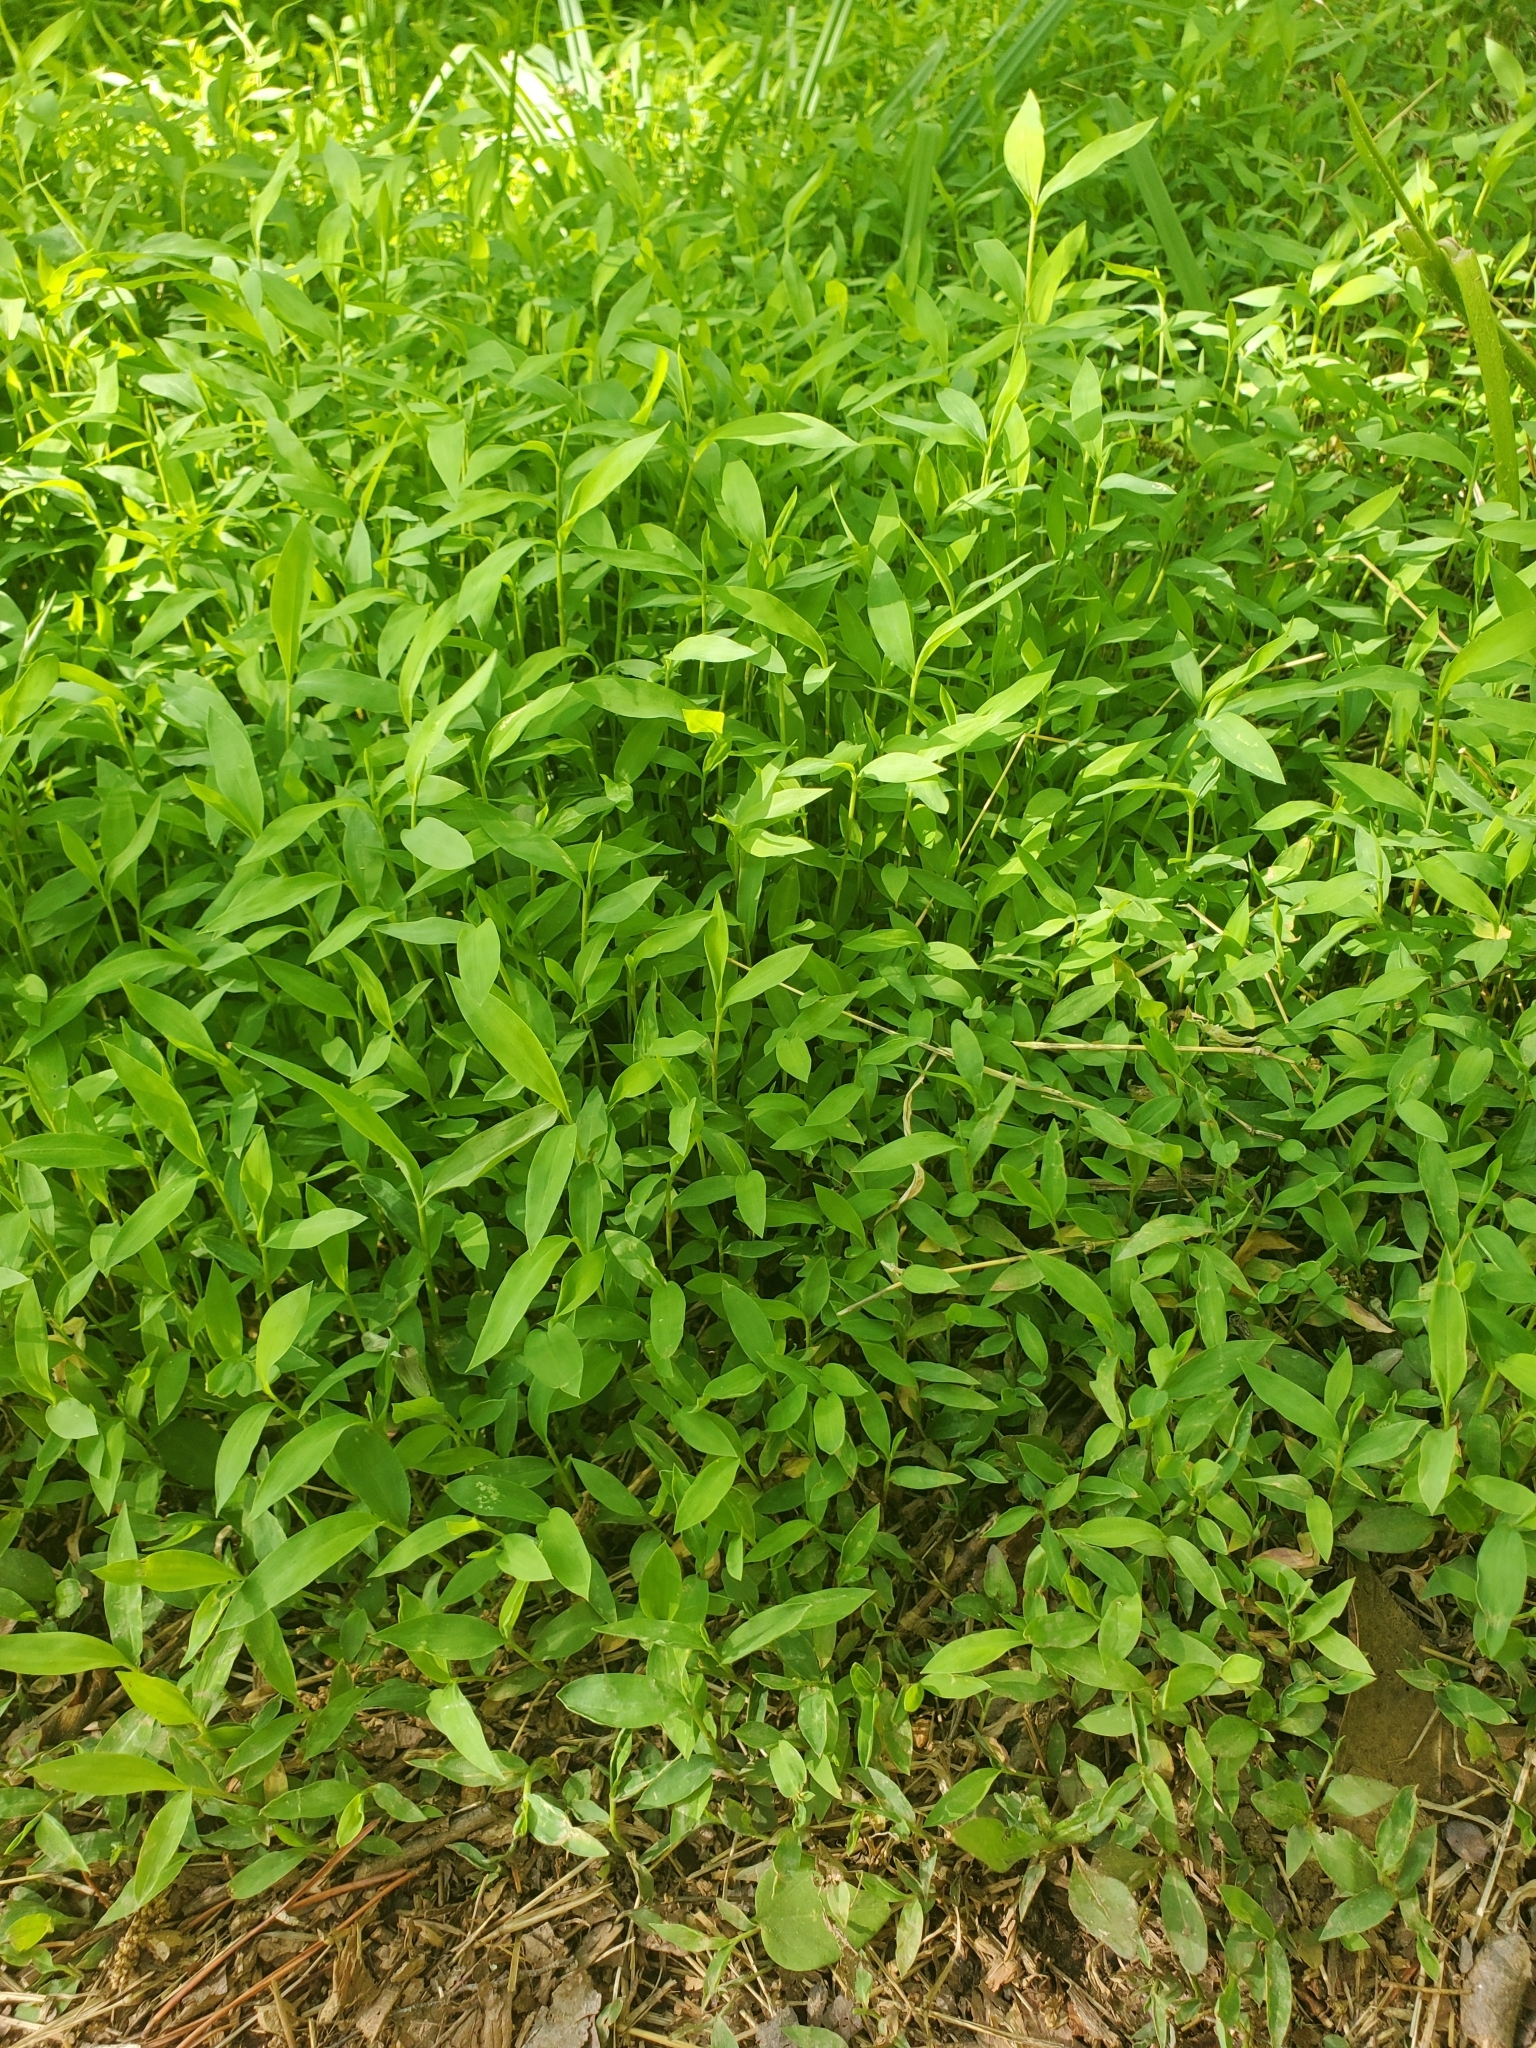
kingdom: Plantae
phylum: Tracheophyta
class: Liliopsida
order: Poales
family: Poaceae
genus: Microstegium
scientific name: Microstegium vimineum
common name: Japanese stiltgrass
